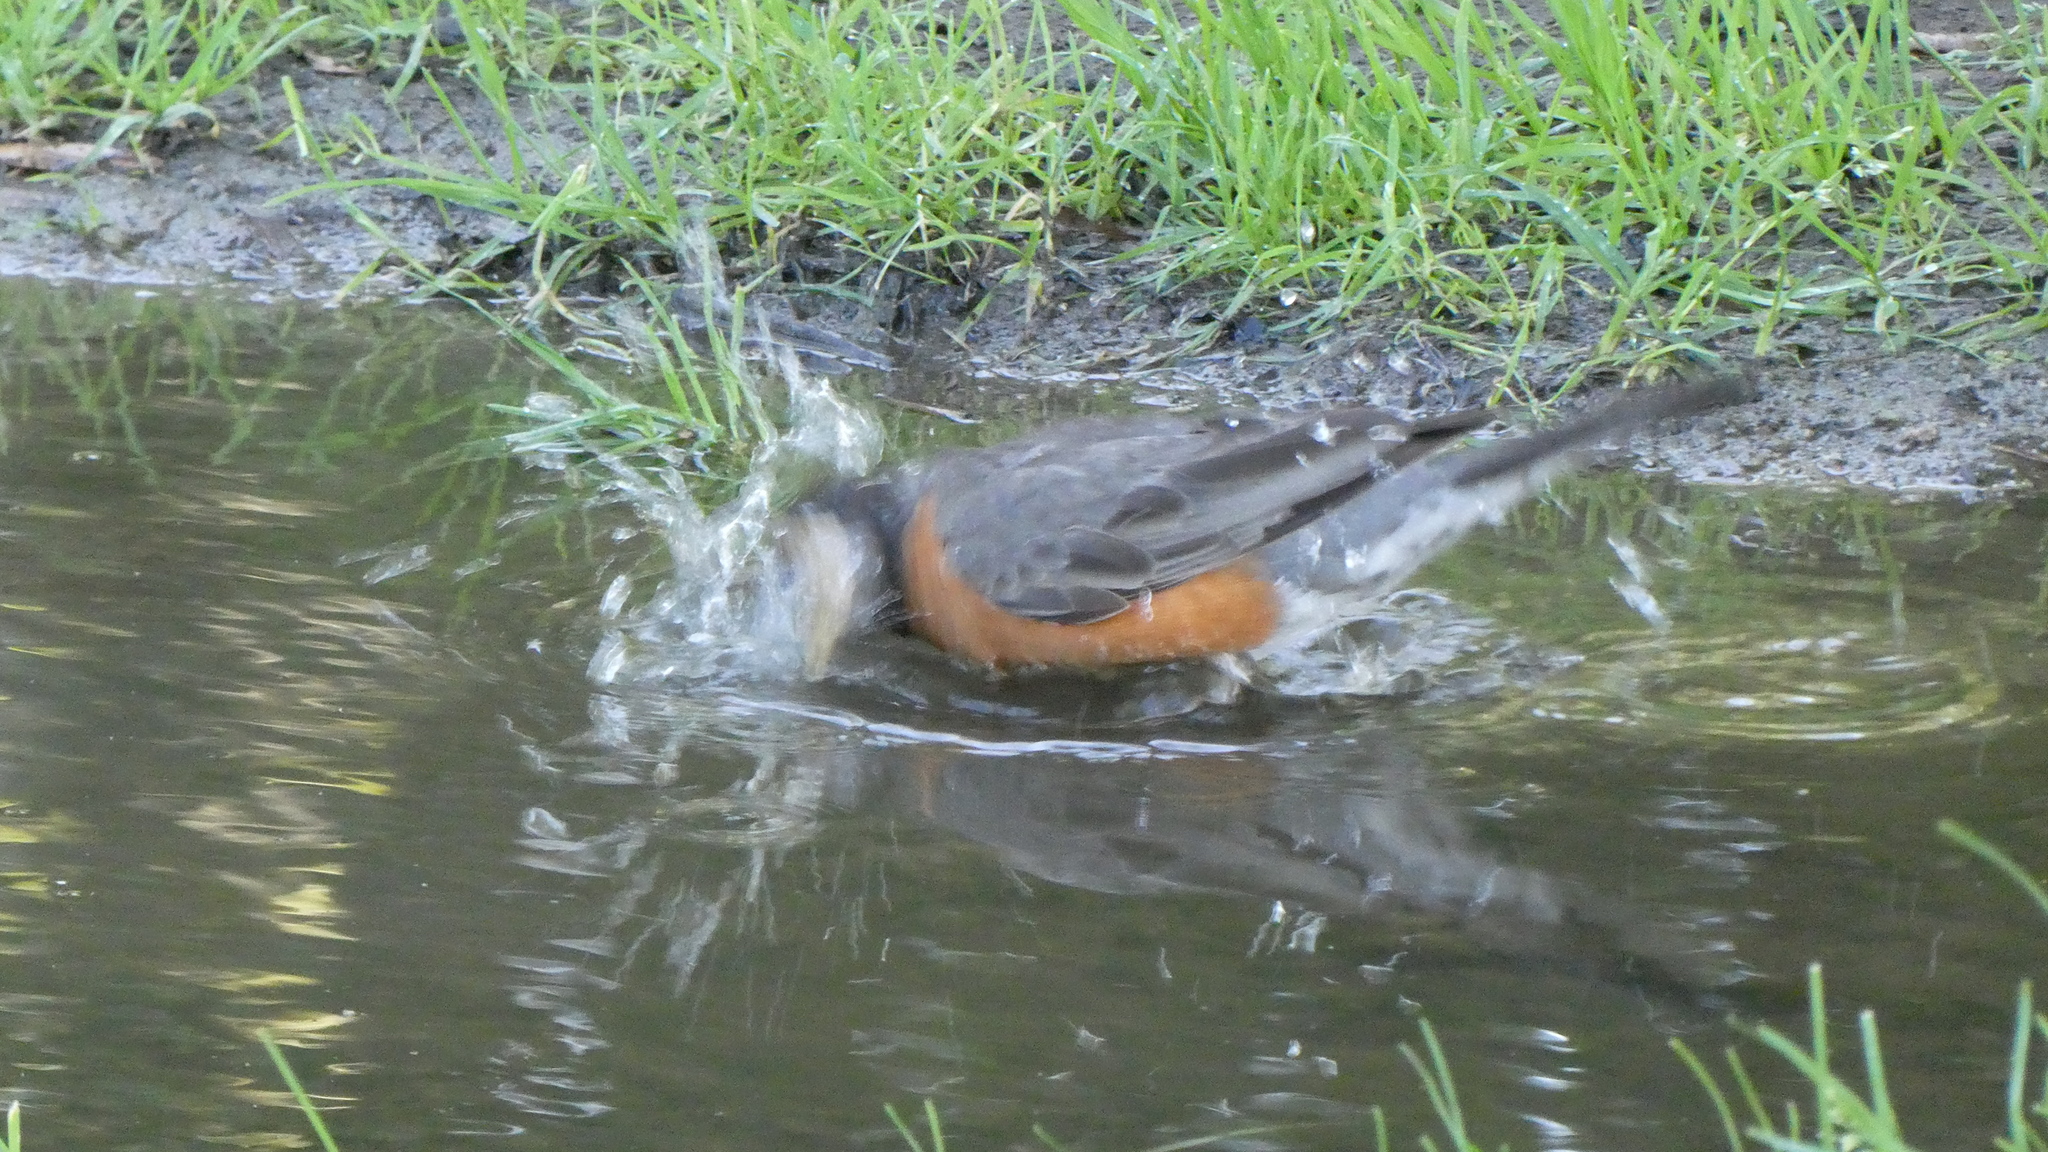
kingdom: Animalia
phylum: Chordata
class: Aves
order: Passeriformes
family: Turdidae
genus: Turdus
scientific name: Turdus migratorius
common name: American robin
